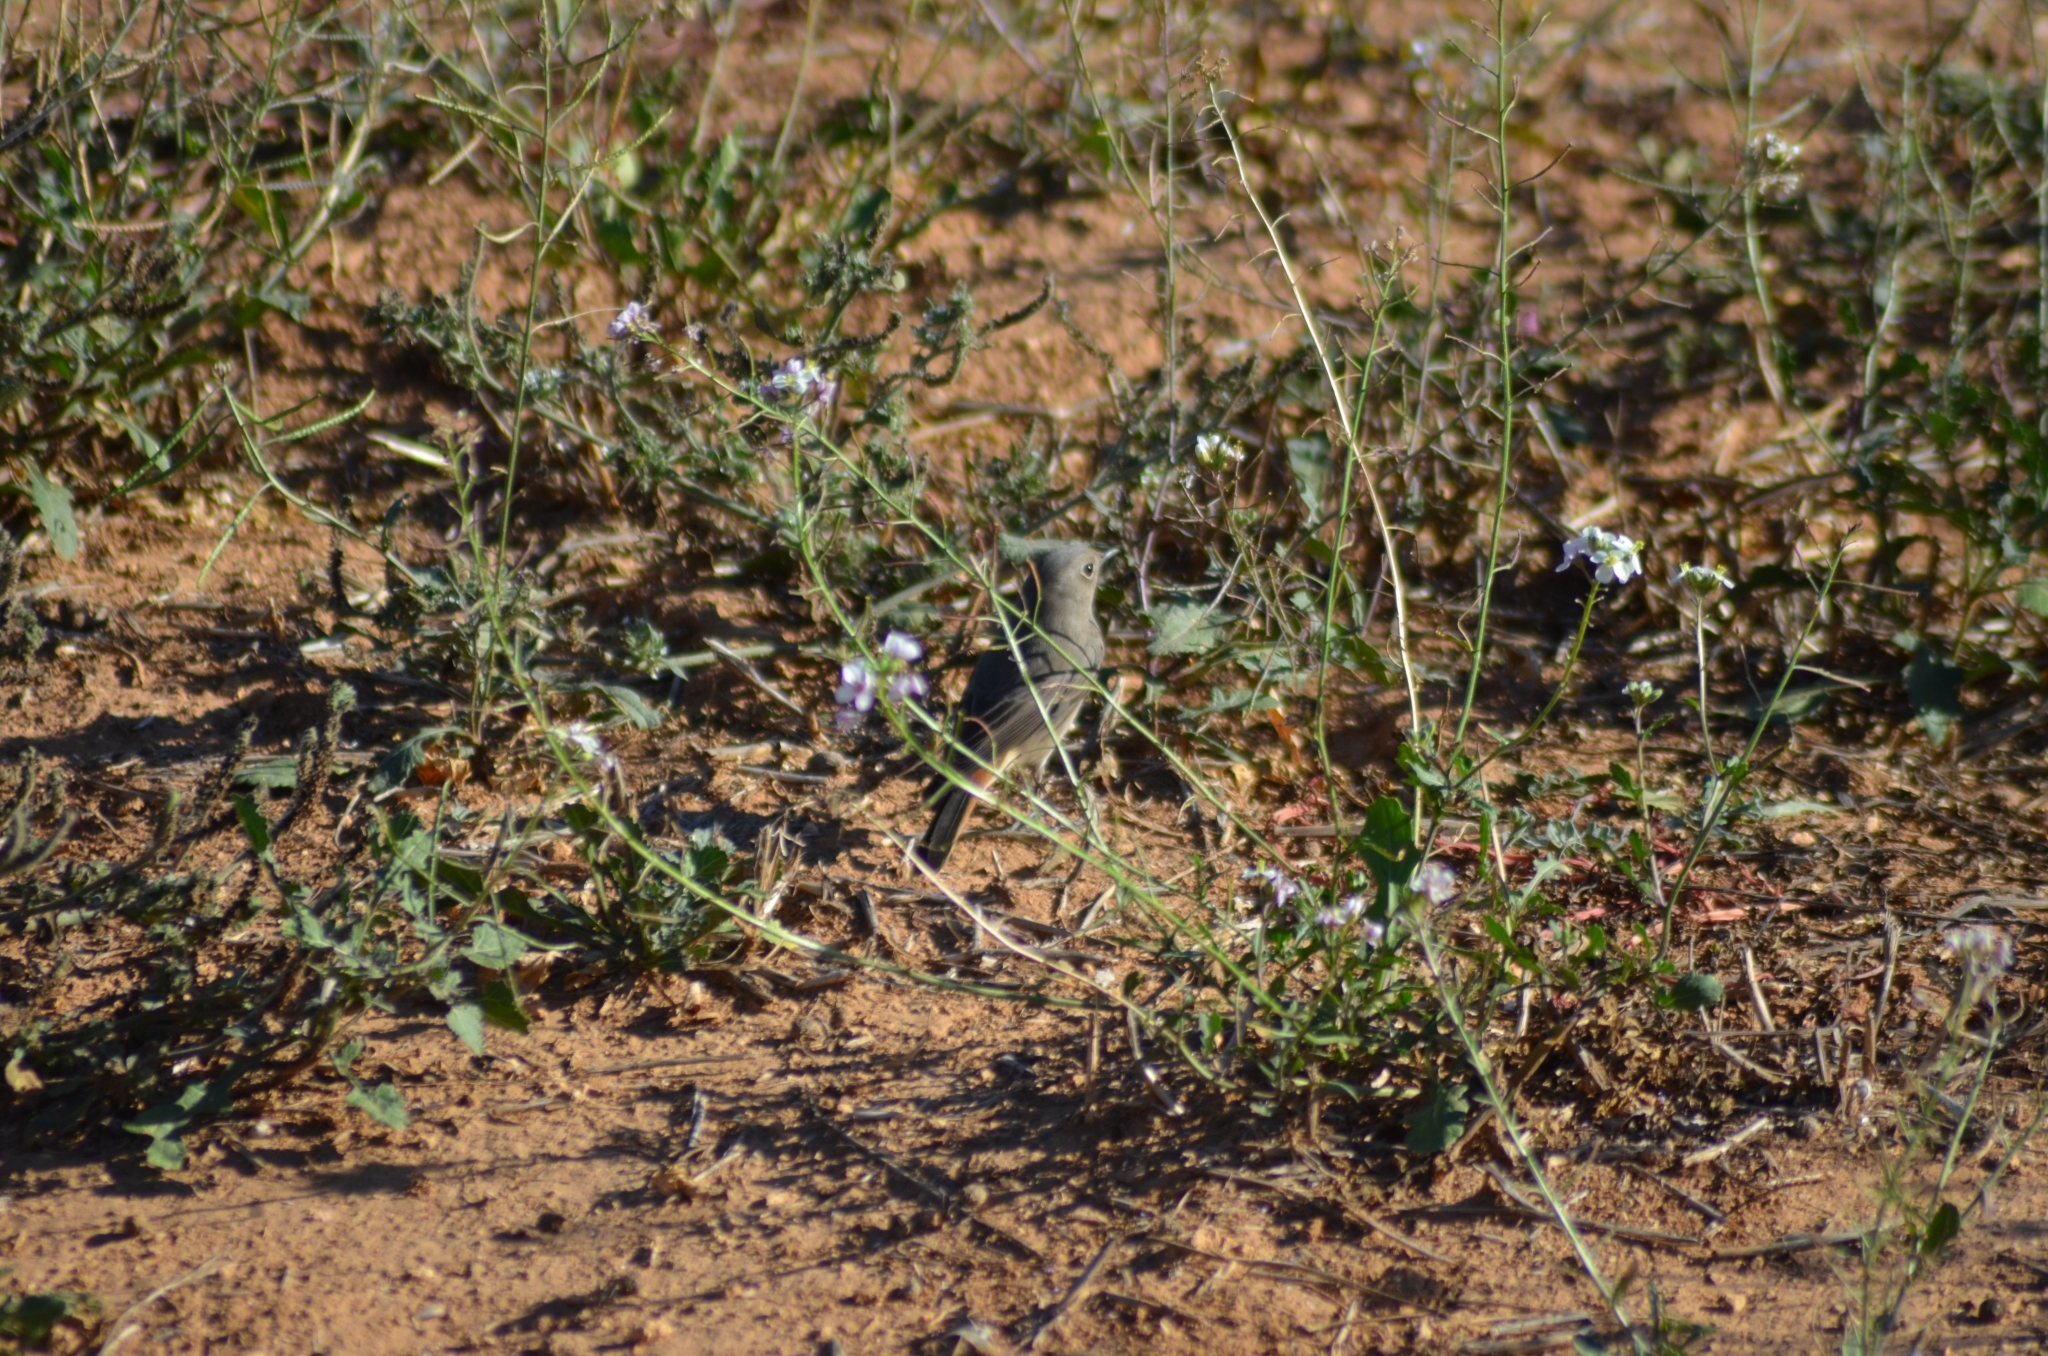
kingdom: Animalia
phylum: Chordata
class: Aves
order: Passeriformes
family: Muscicapidae
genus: Phoenicurus
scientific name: Phoenicurus ochruros
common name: Black redstart
